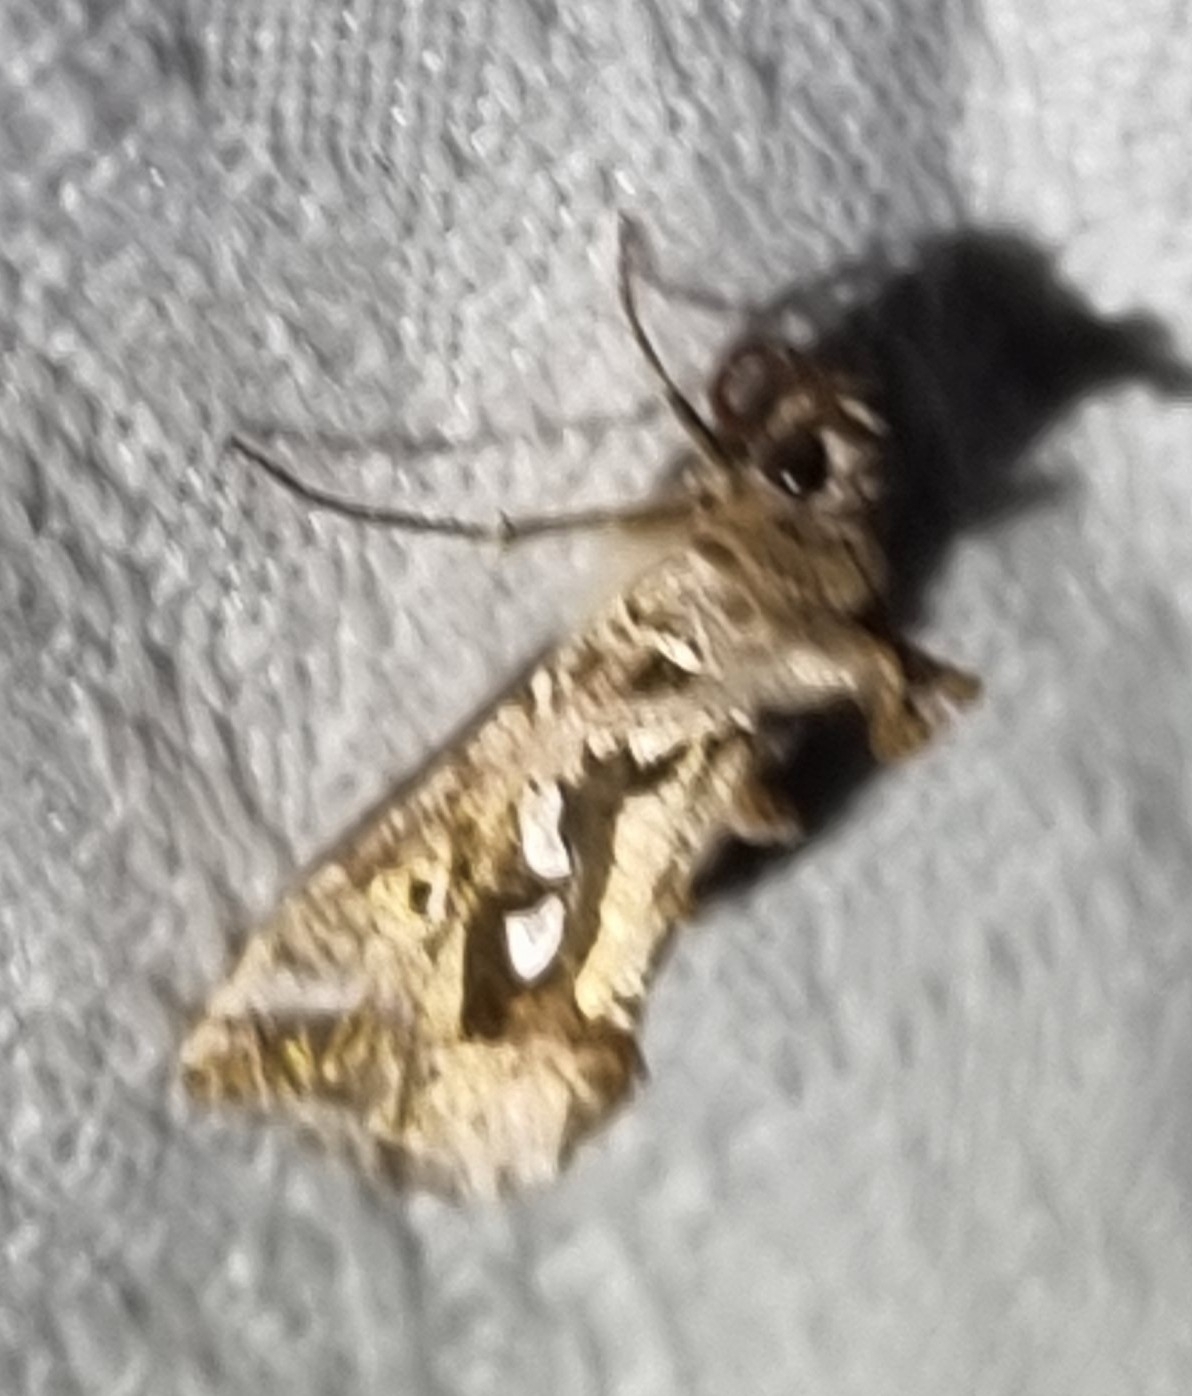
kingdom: Animalia
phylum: Arthropoda
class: Insecta
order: Lepidoptera
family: Noctuidae
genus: Chrysodeixis
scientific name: Chrysodeixis argentifera
